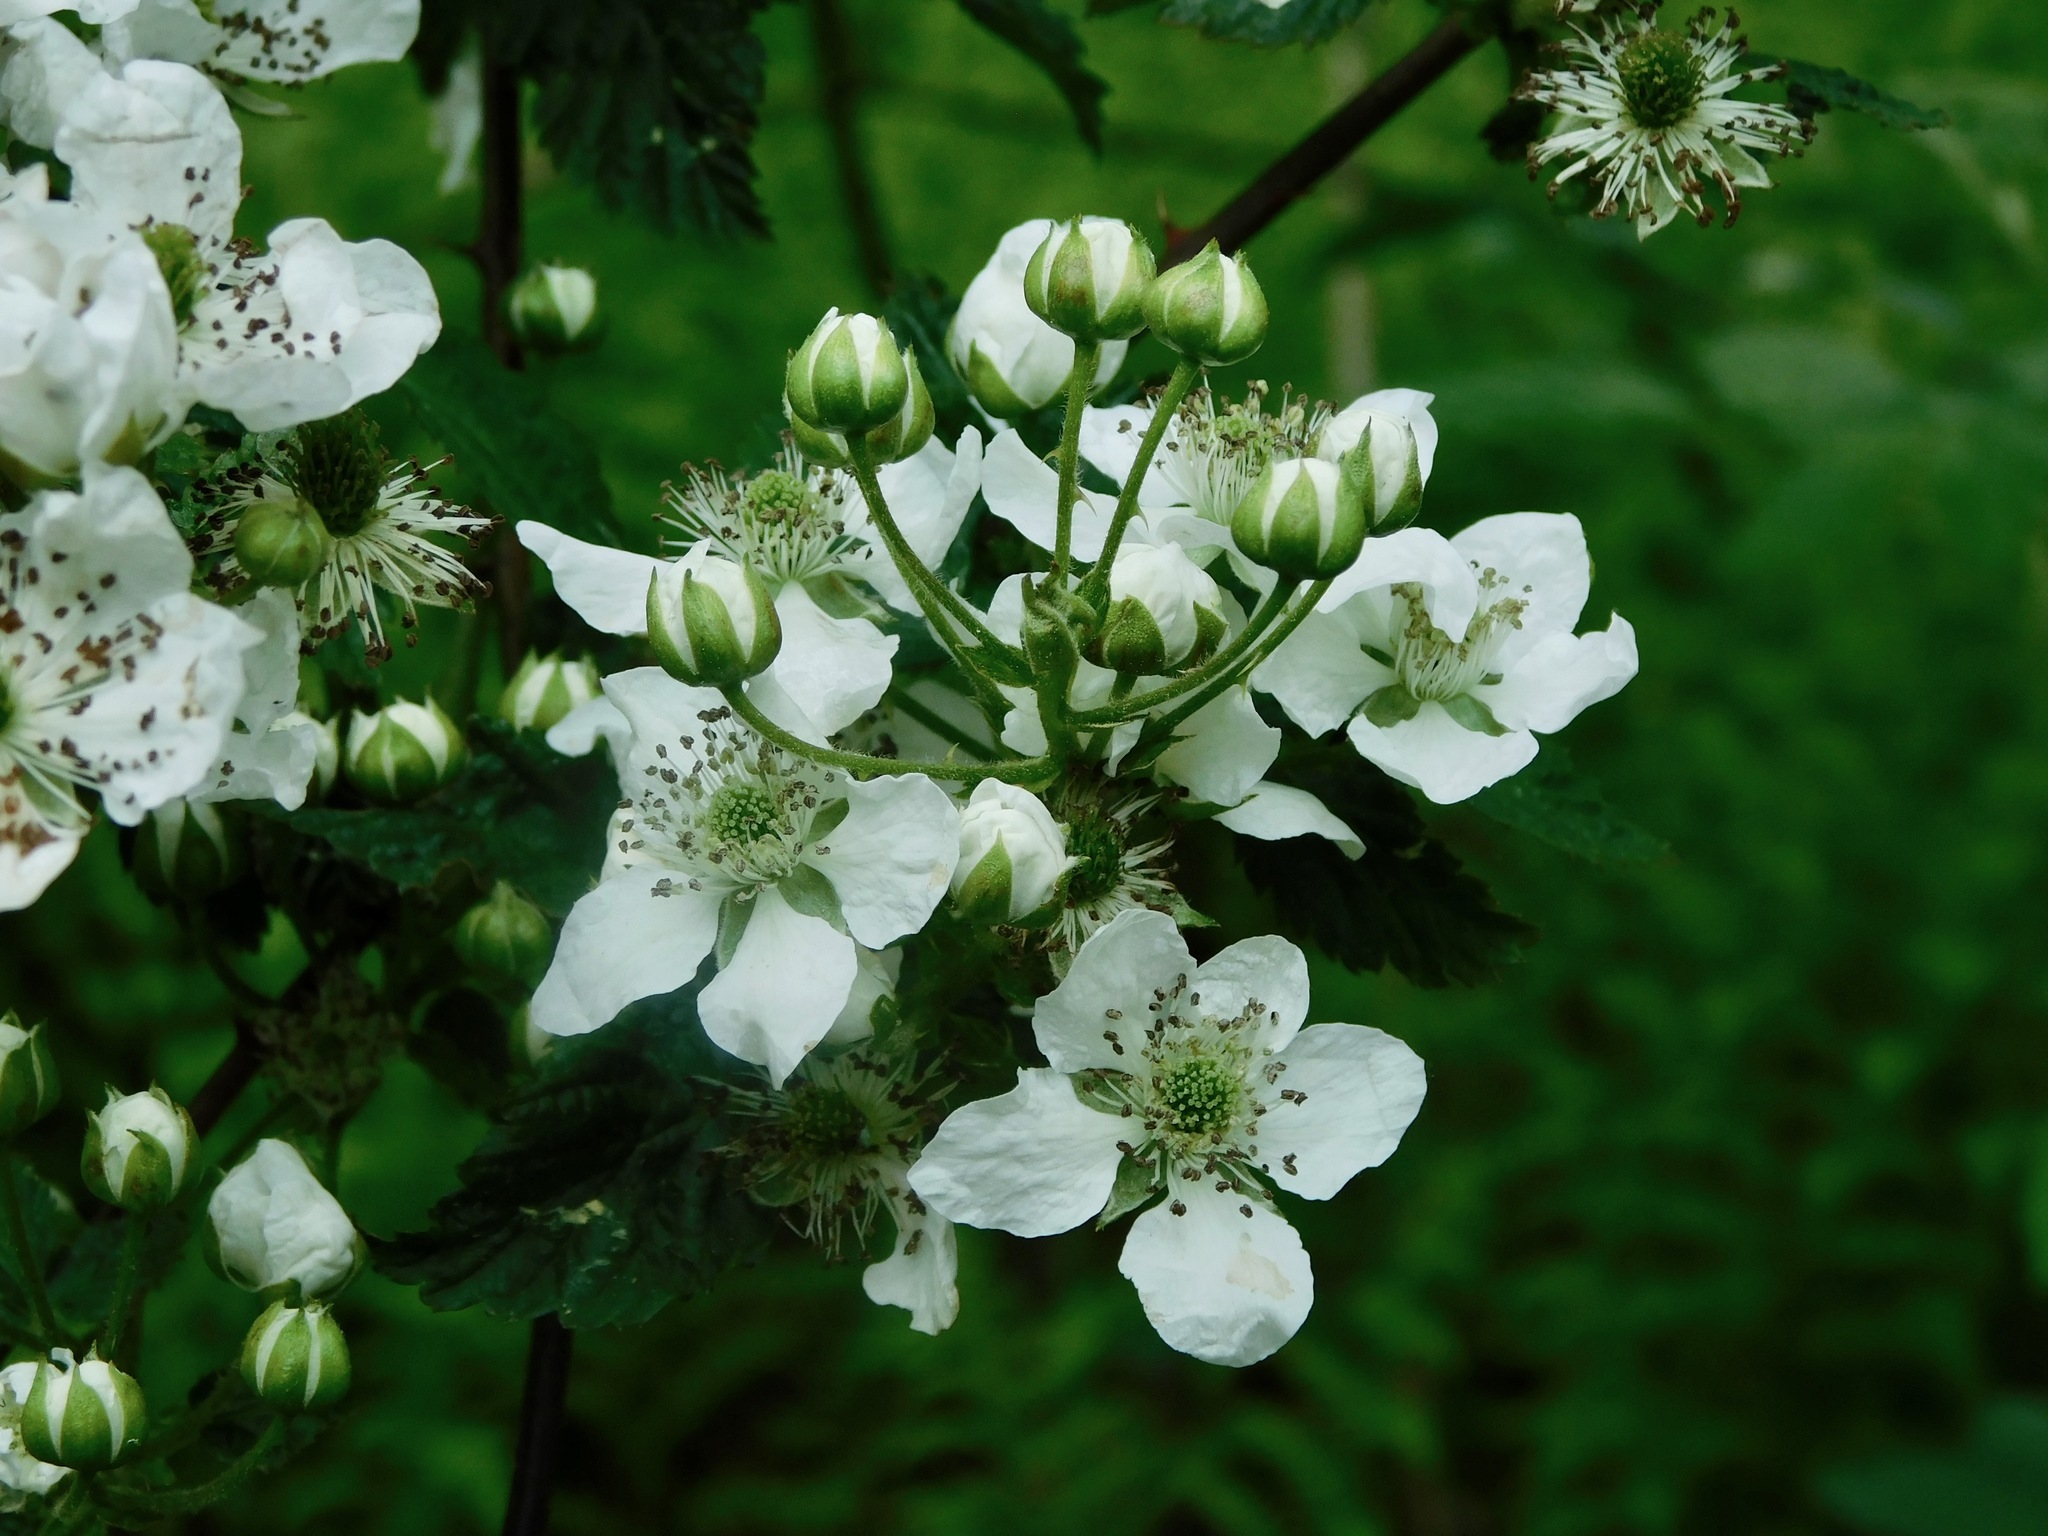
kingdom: Plantae
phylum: Tracheophyta
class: Magnoliopsida
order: Rosales
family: Rosaceae
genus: Rubus
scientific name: Rubus allegheniensis
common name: Allegheny blackberry
